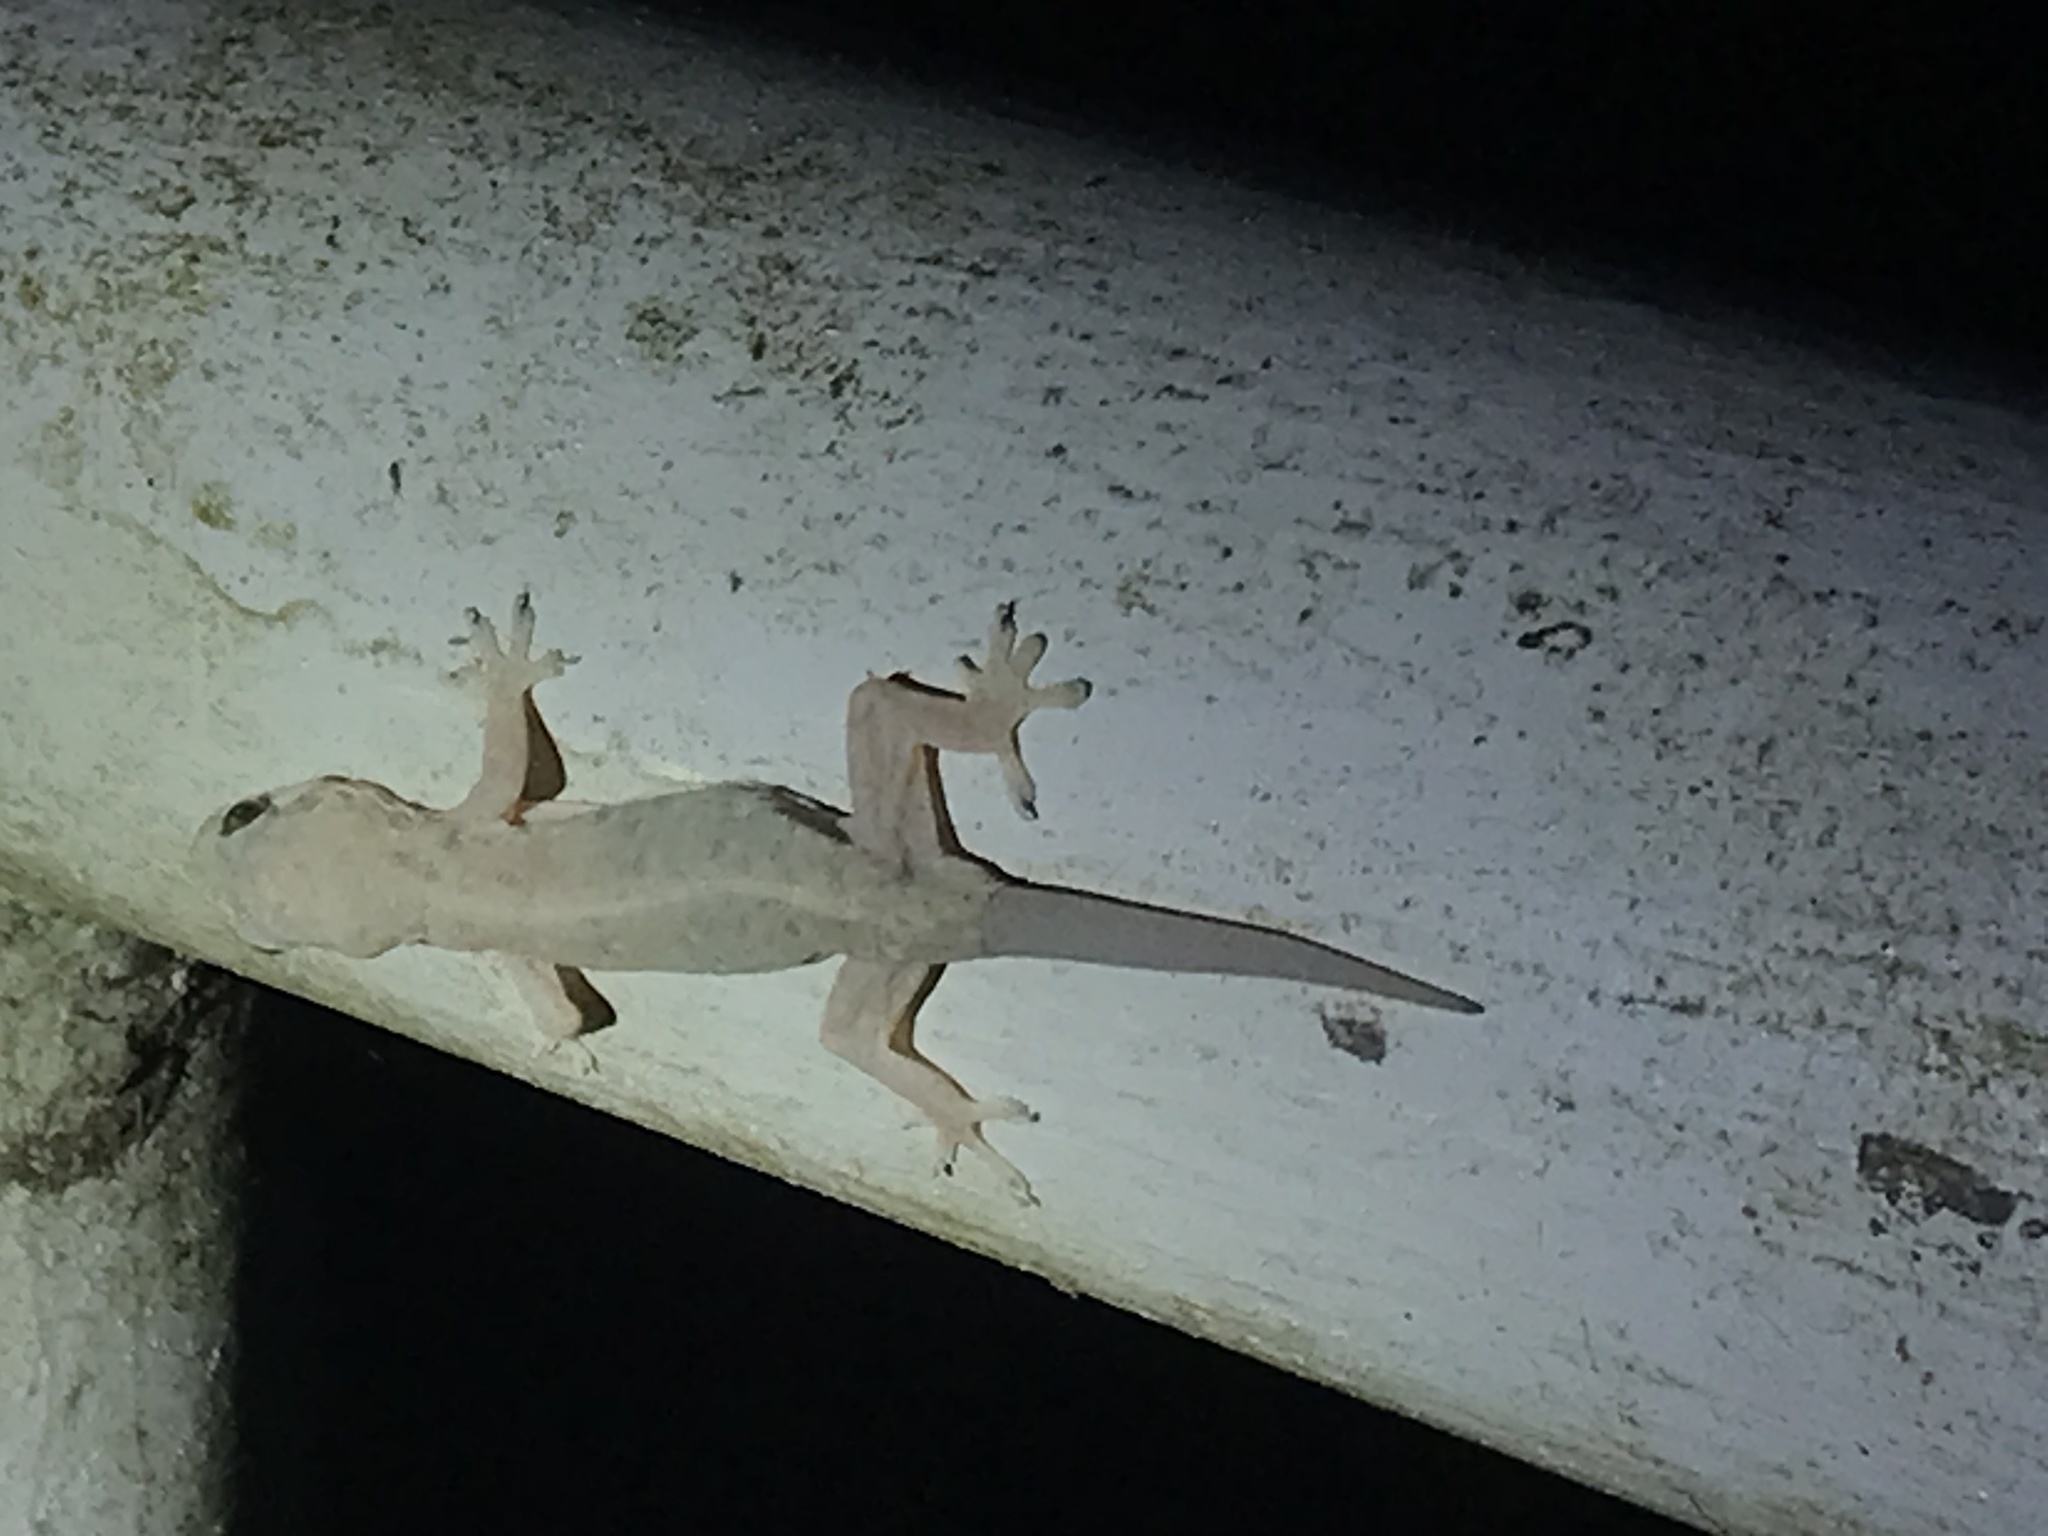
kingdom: Animalia
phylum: Chordata
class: Squamata
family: Gekkonidae
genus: Hemidactylus
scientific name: Hemidactylus bowringii
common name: Oriental leaf-toed gecko
